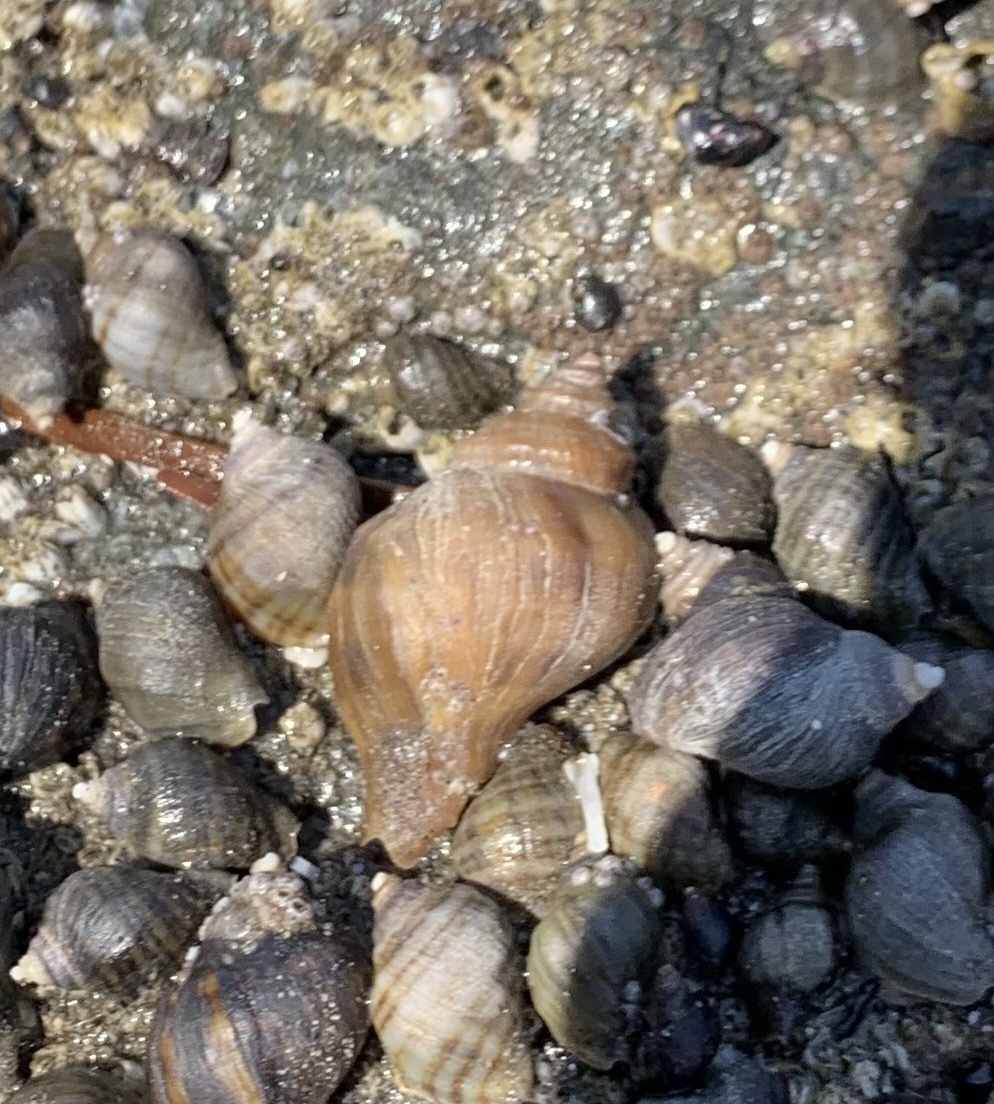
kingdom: Animalia
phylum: Mollusca
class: Gastropoda
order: Neogastropoda
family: Muricidae
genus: Nucella
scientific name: Nucella lamellosa
